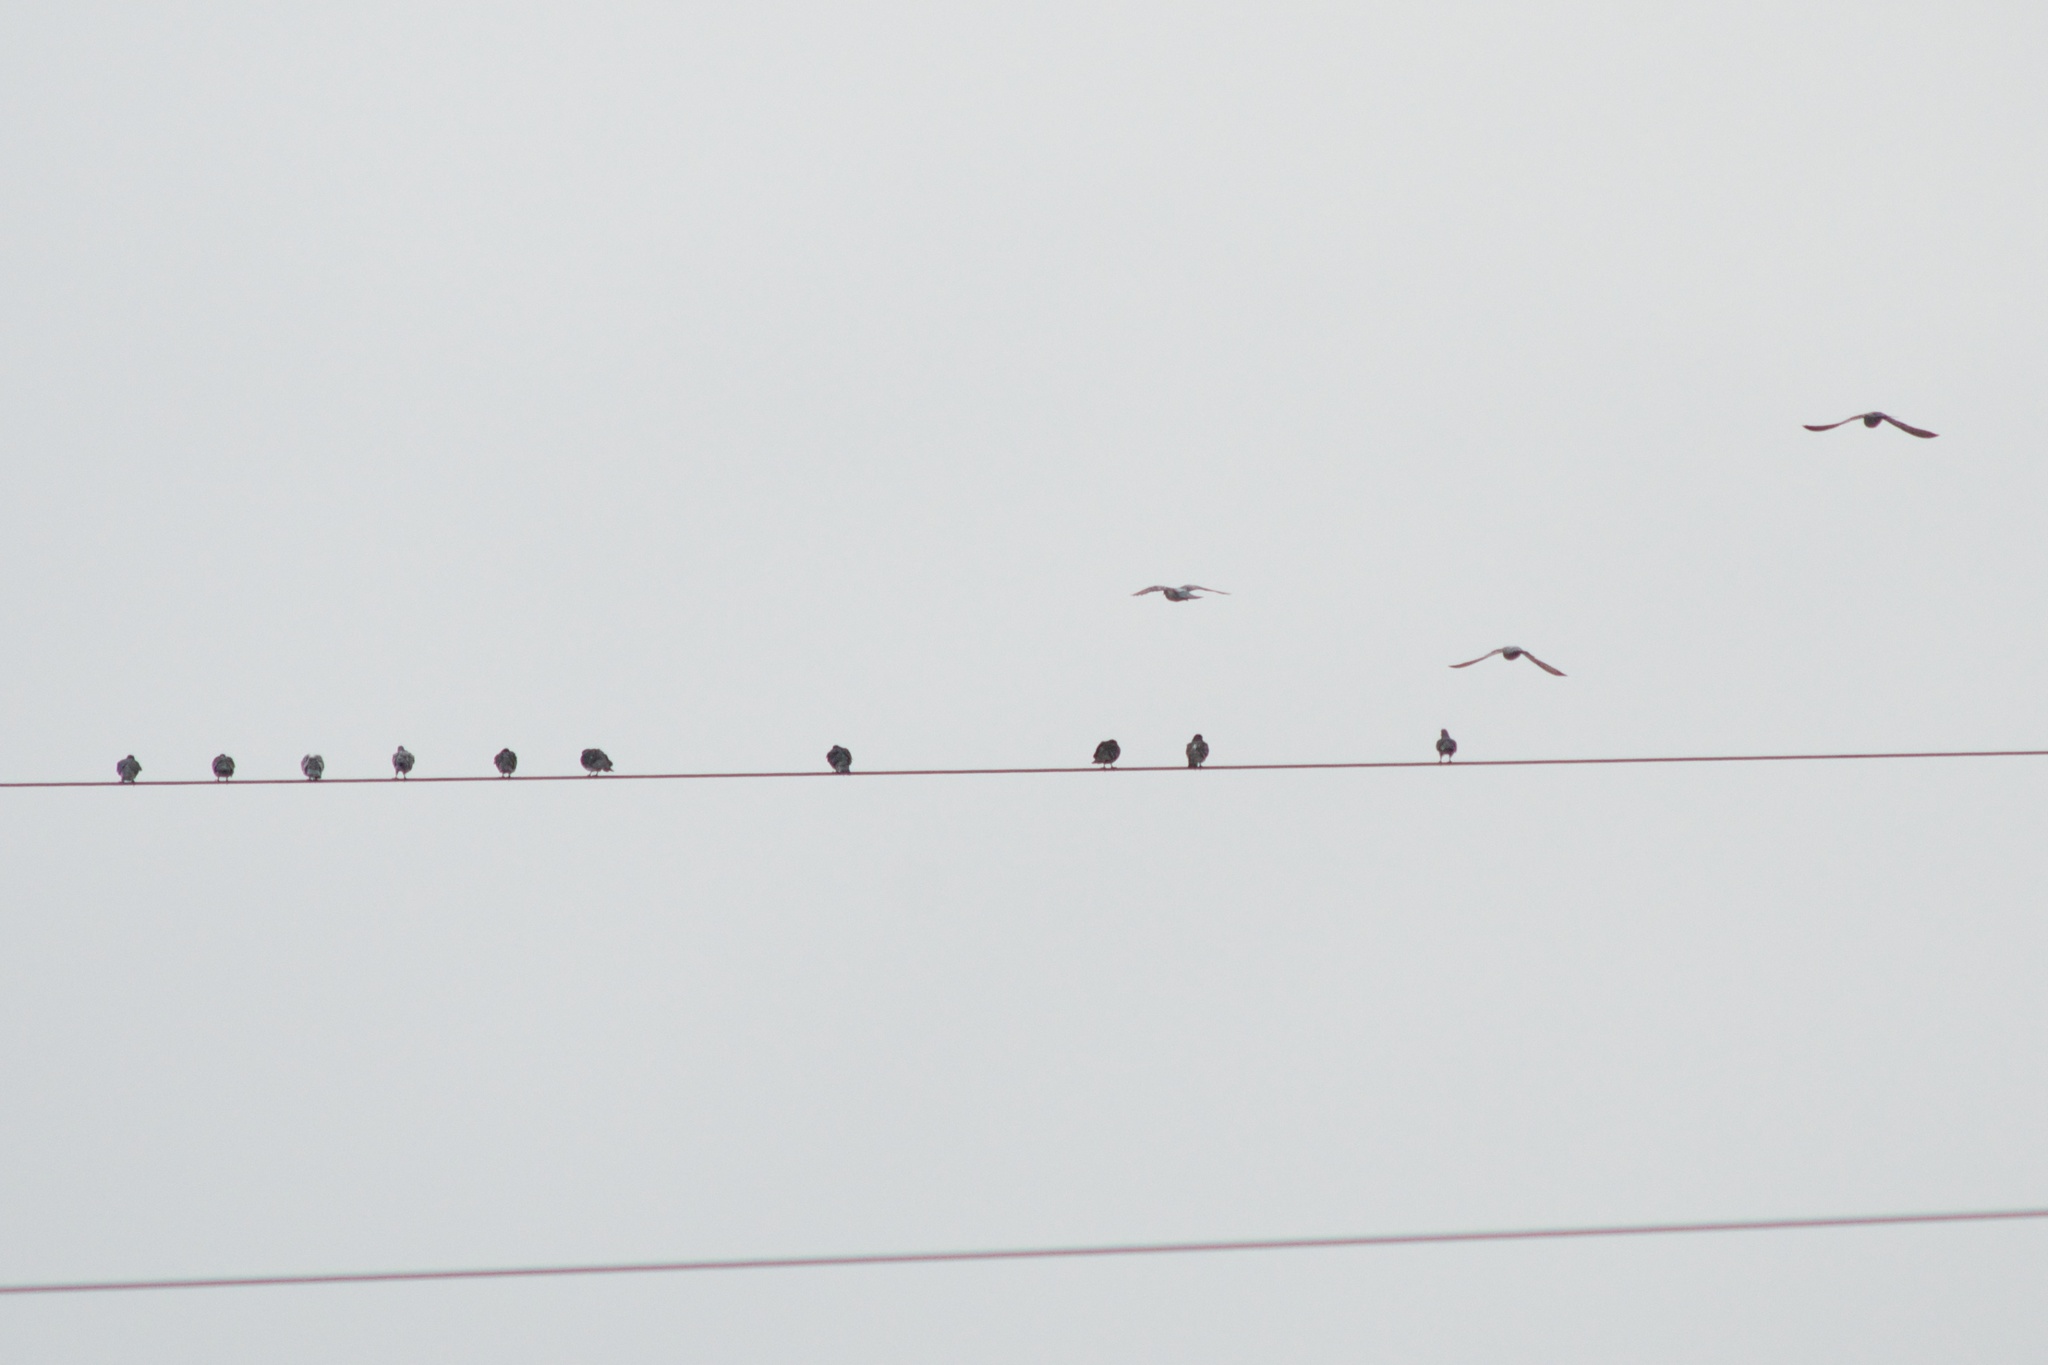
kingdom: Animalia
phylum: Chordata
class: Aves
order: Columbiformes
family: Columbidae
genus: Columba
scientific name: Columba livia
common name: Rock pigeon
